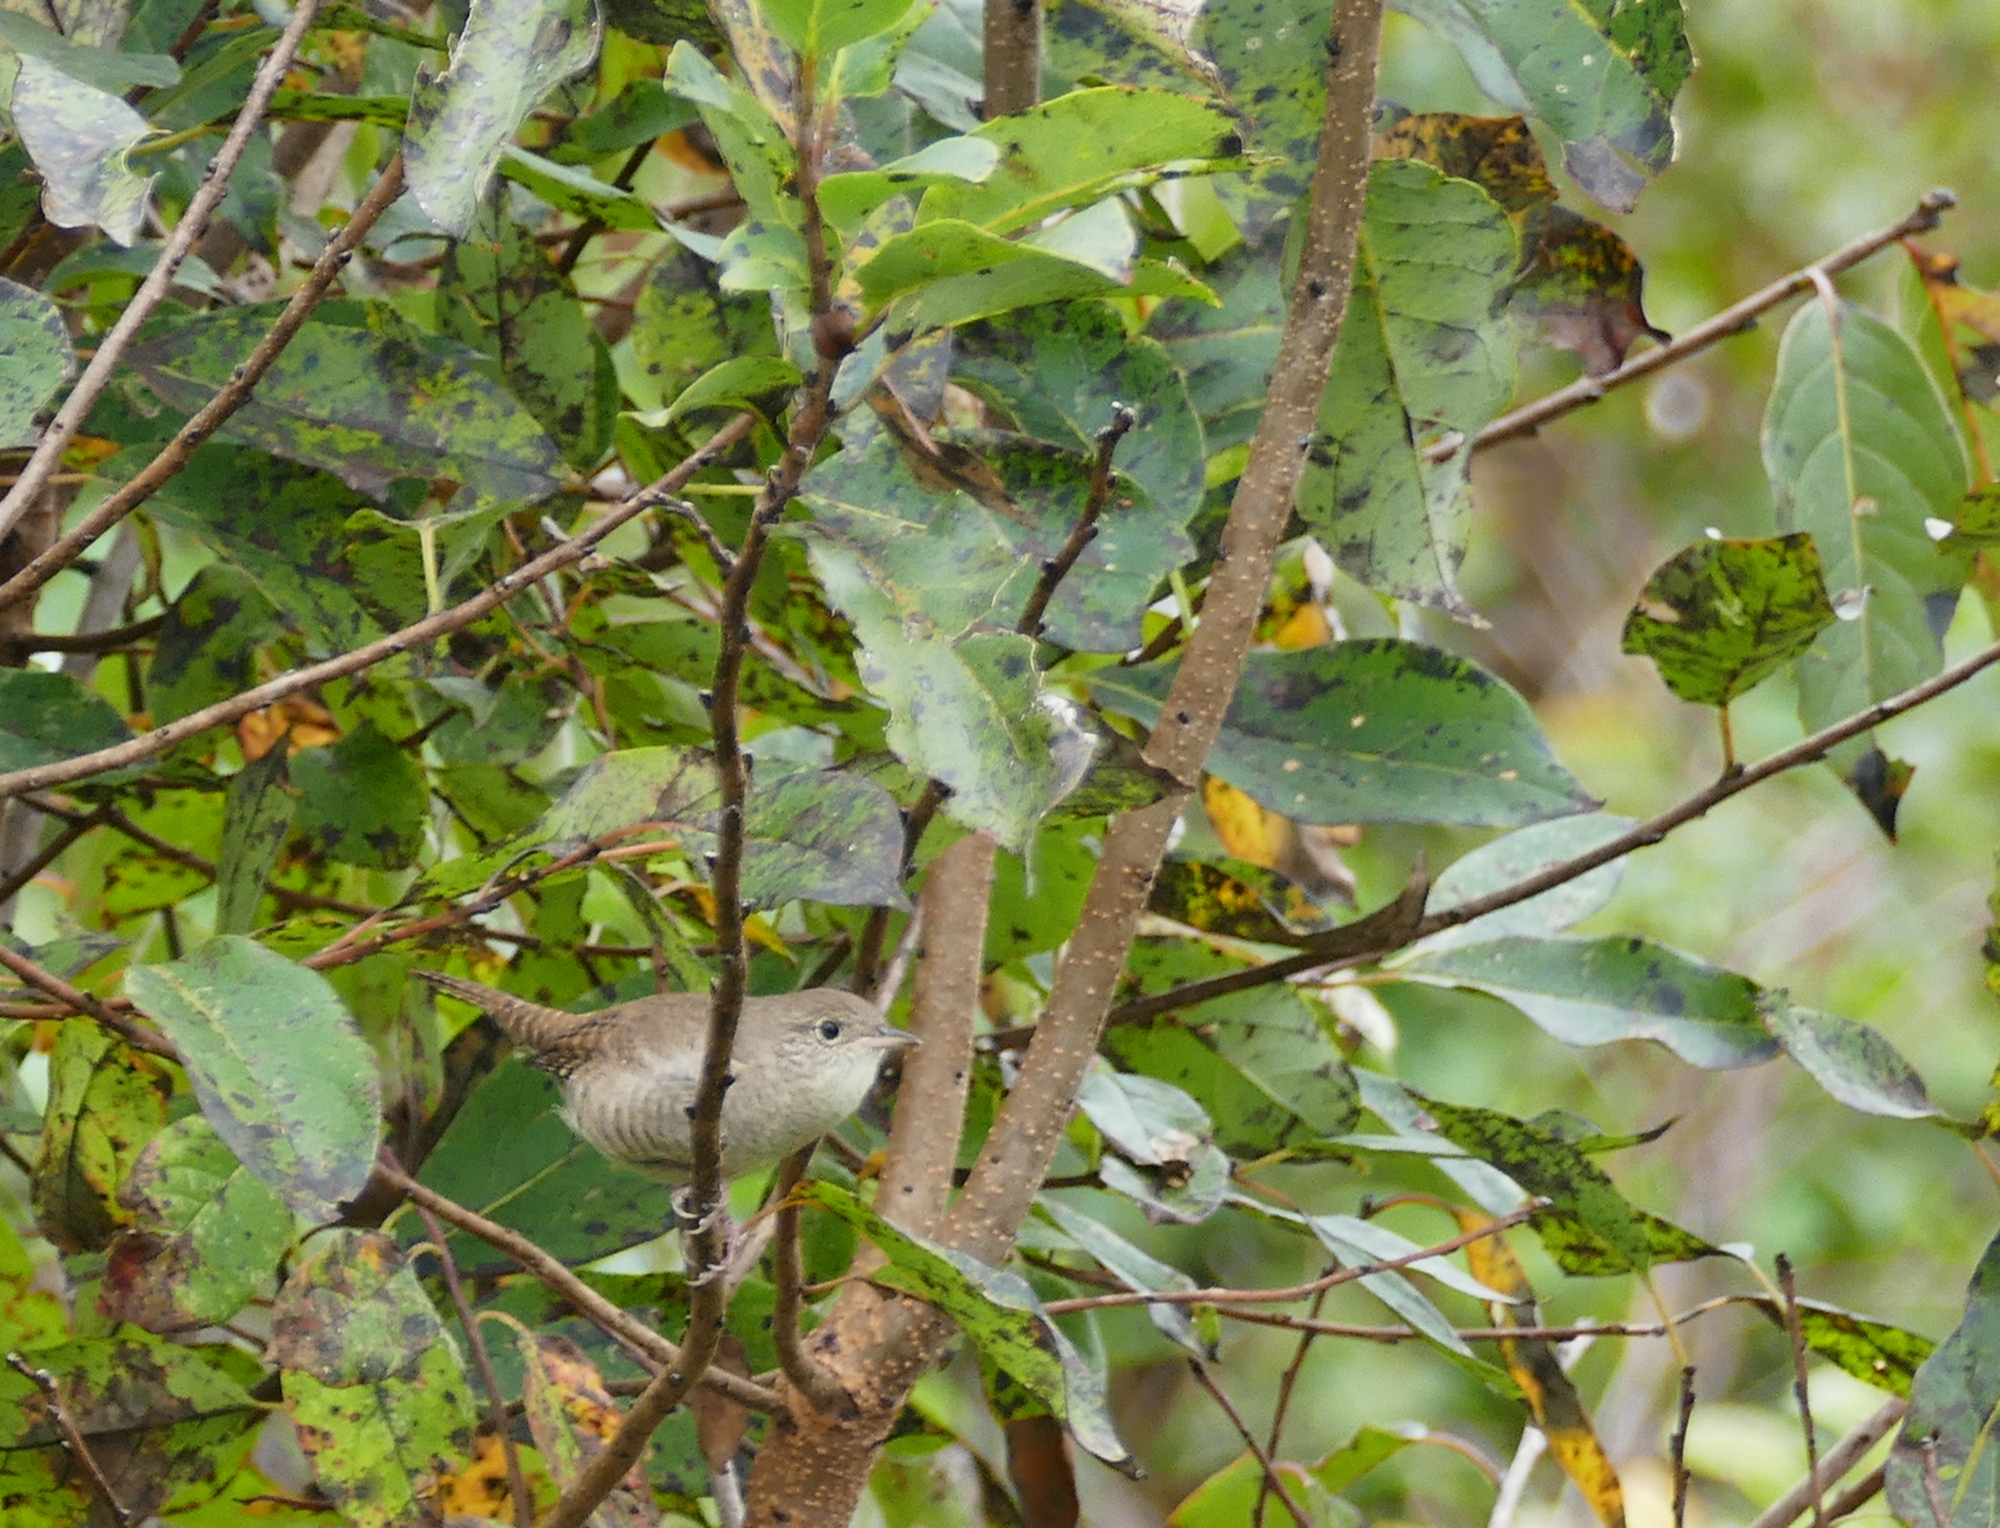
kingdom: Animalia
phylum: Chordata
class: Aves
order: Passeriformes
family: Troglodytidae
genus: Troglodytes
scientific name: Troglodytes aedon
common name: House wren
